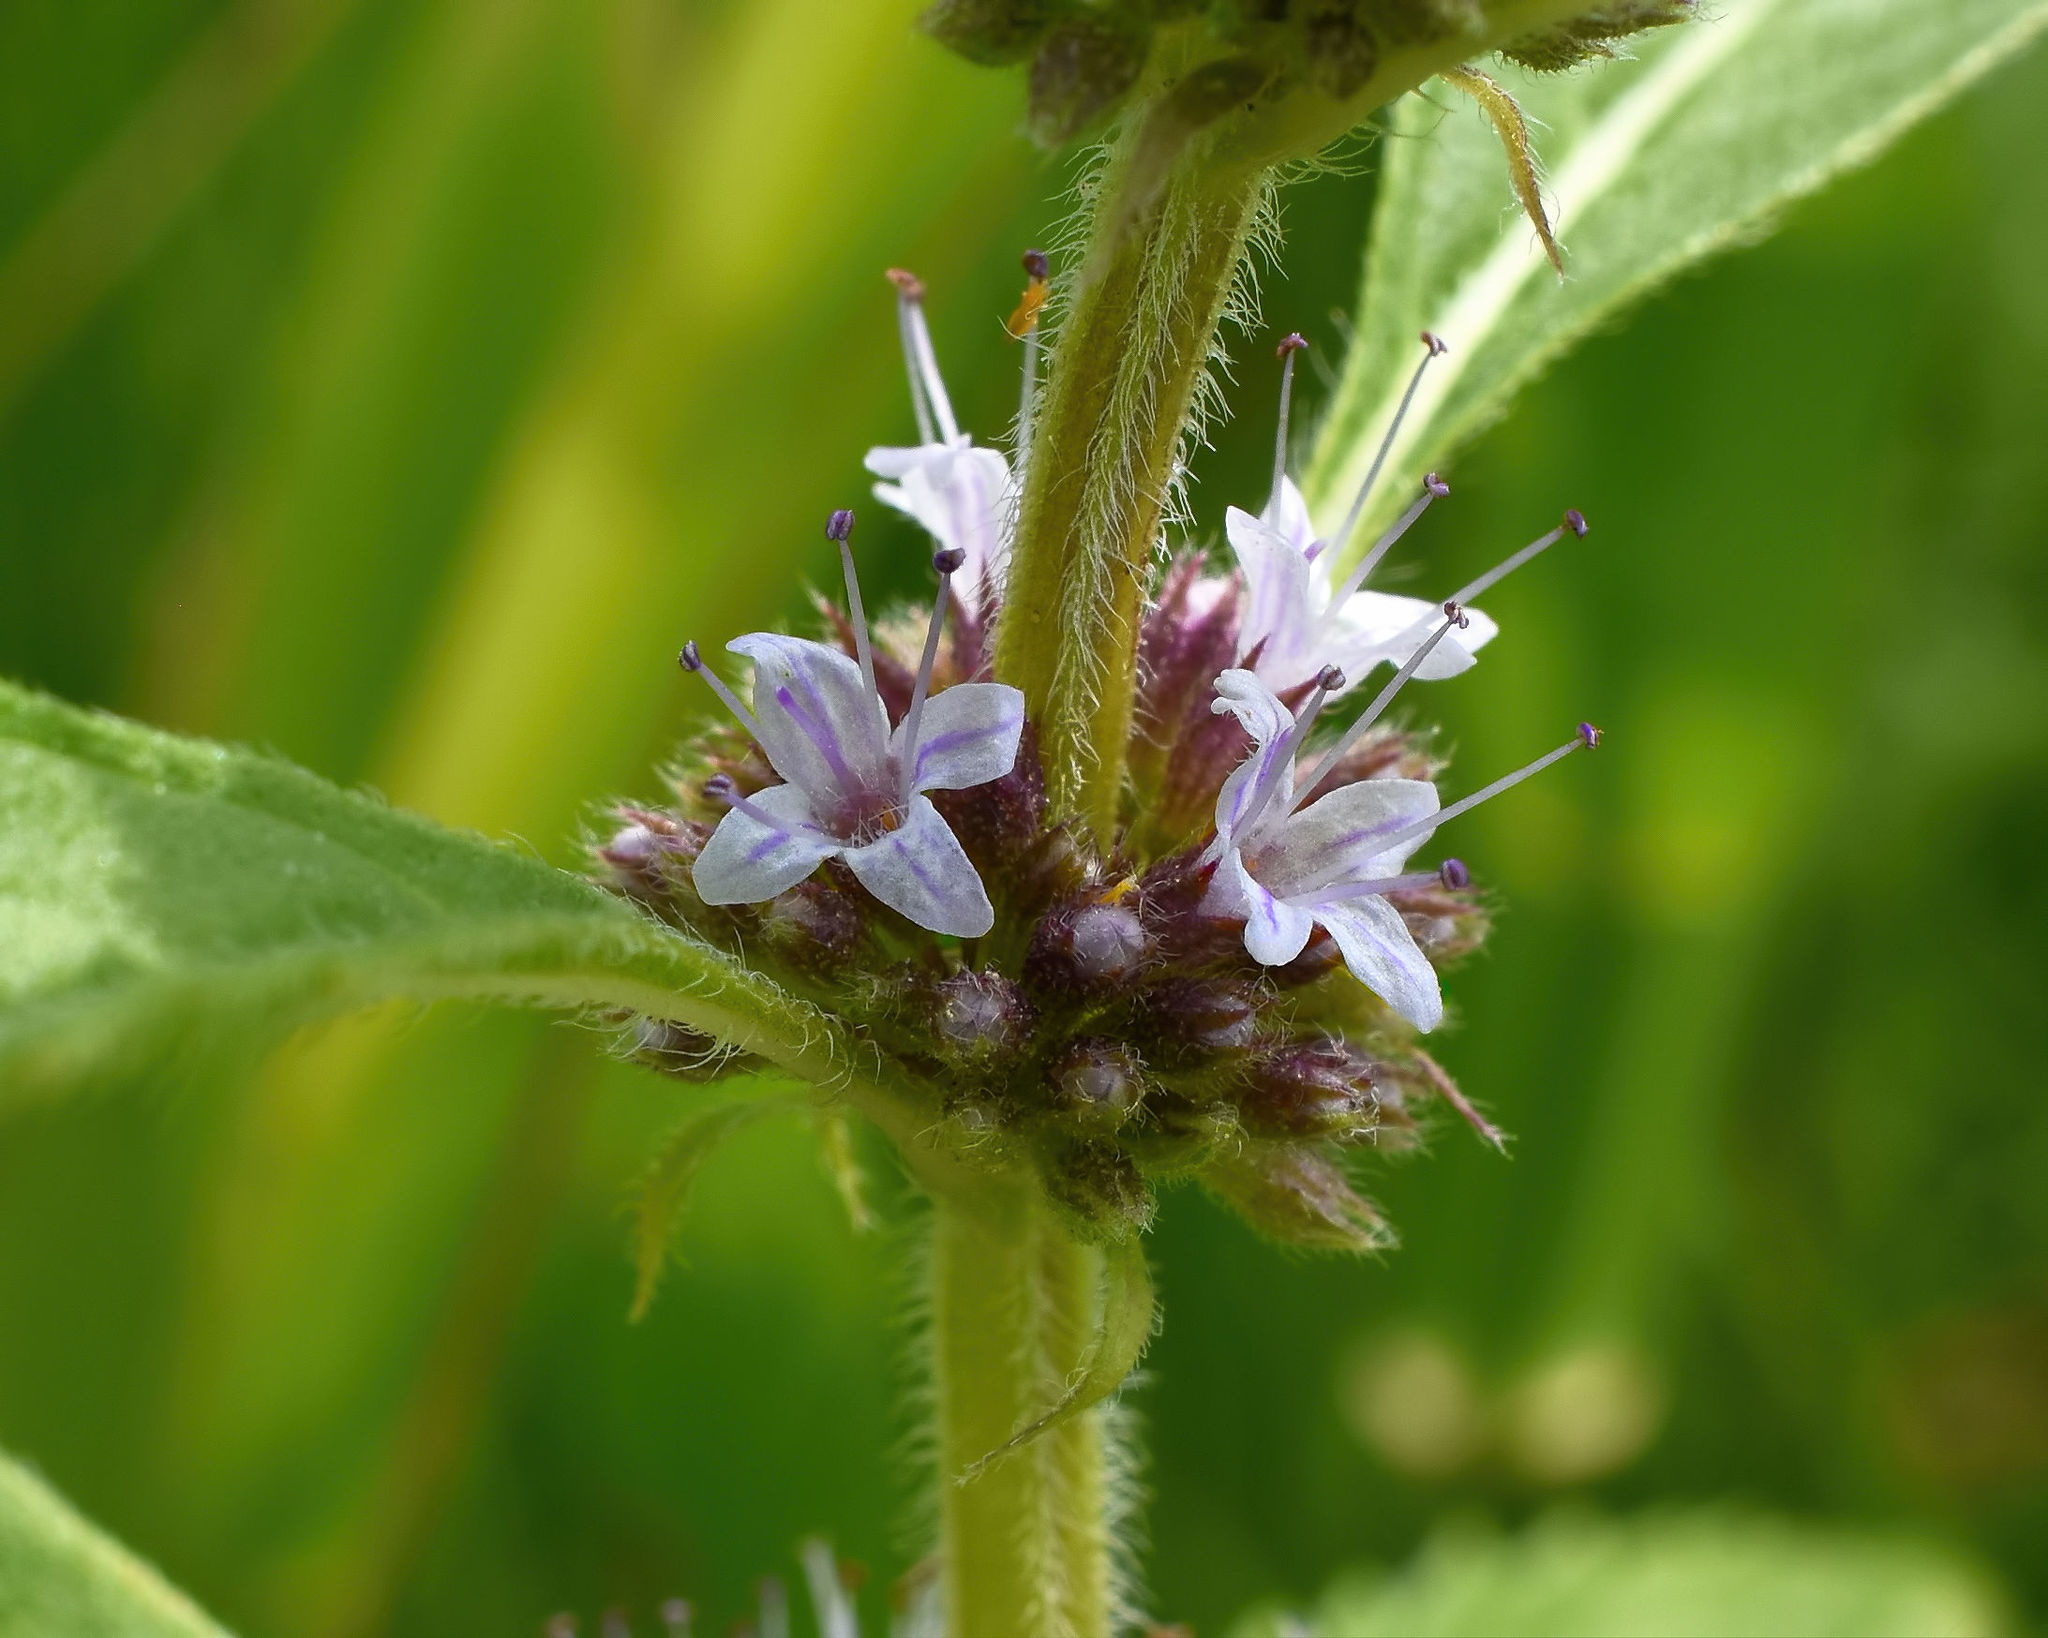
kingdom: Plantae
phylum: Tracheophyta
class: Magnoliopsida
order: Lamiales
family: Lamiaceae
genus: Mentha
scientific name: Mentha canadensis
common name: American corn mint
